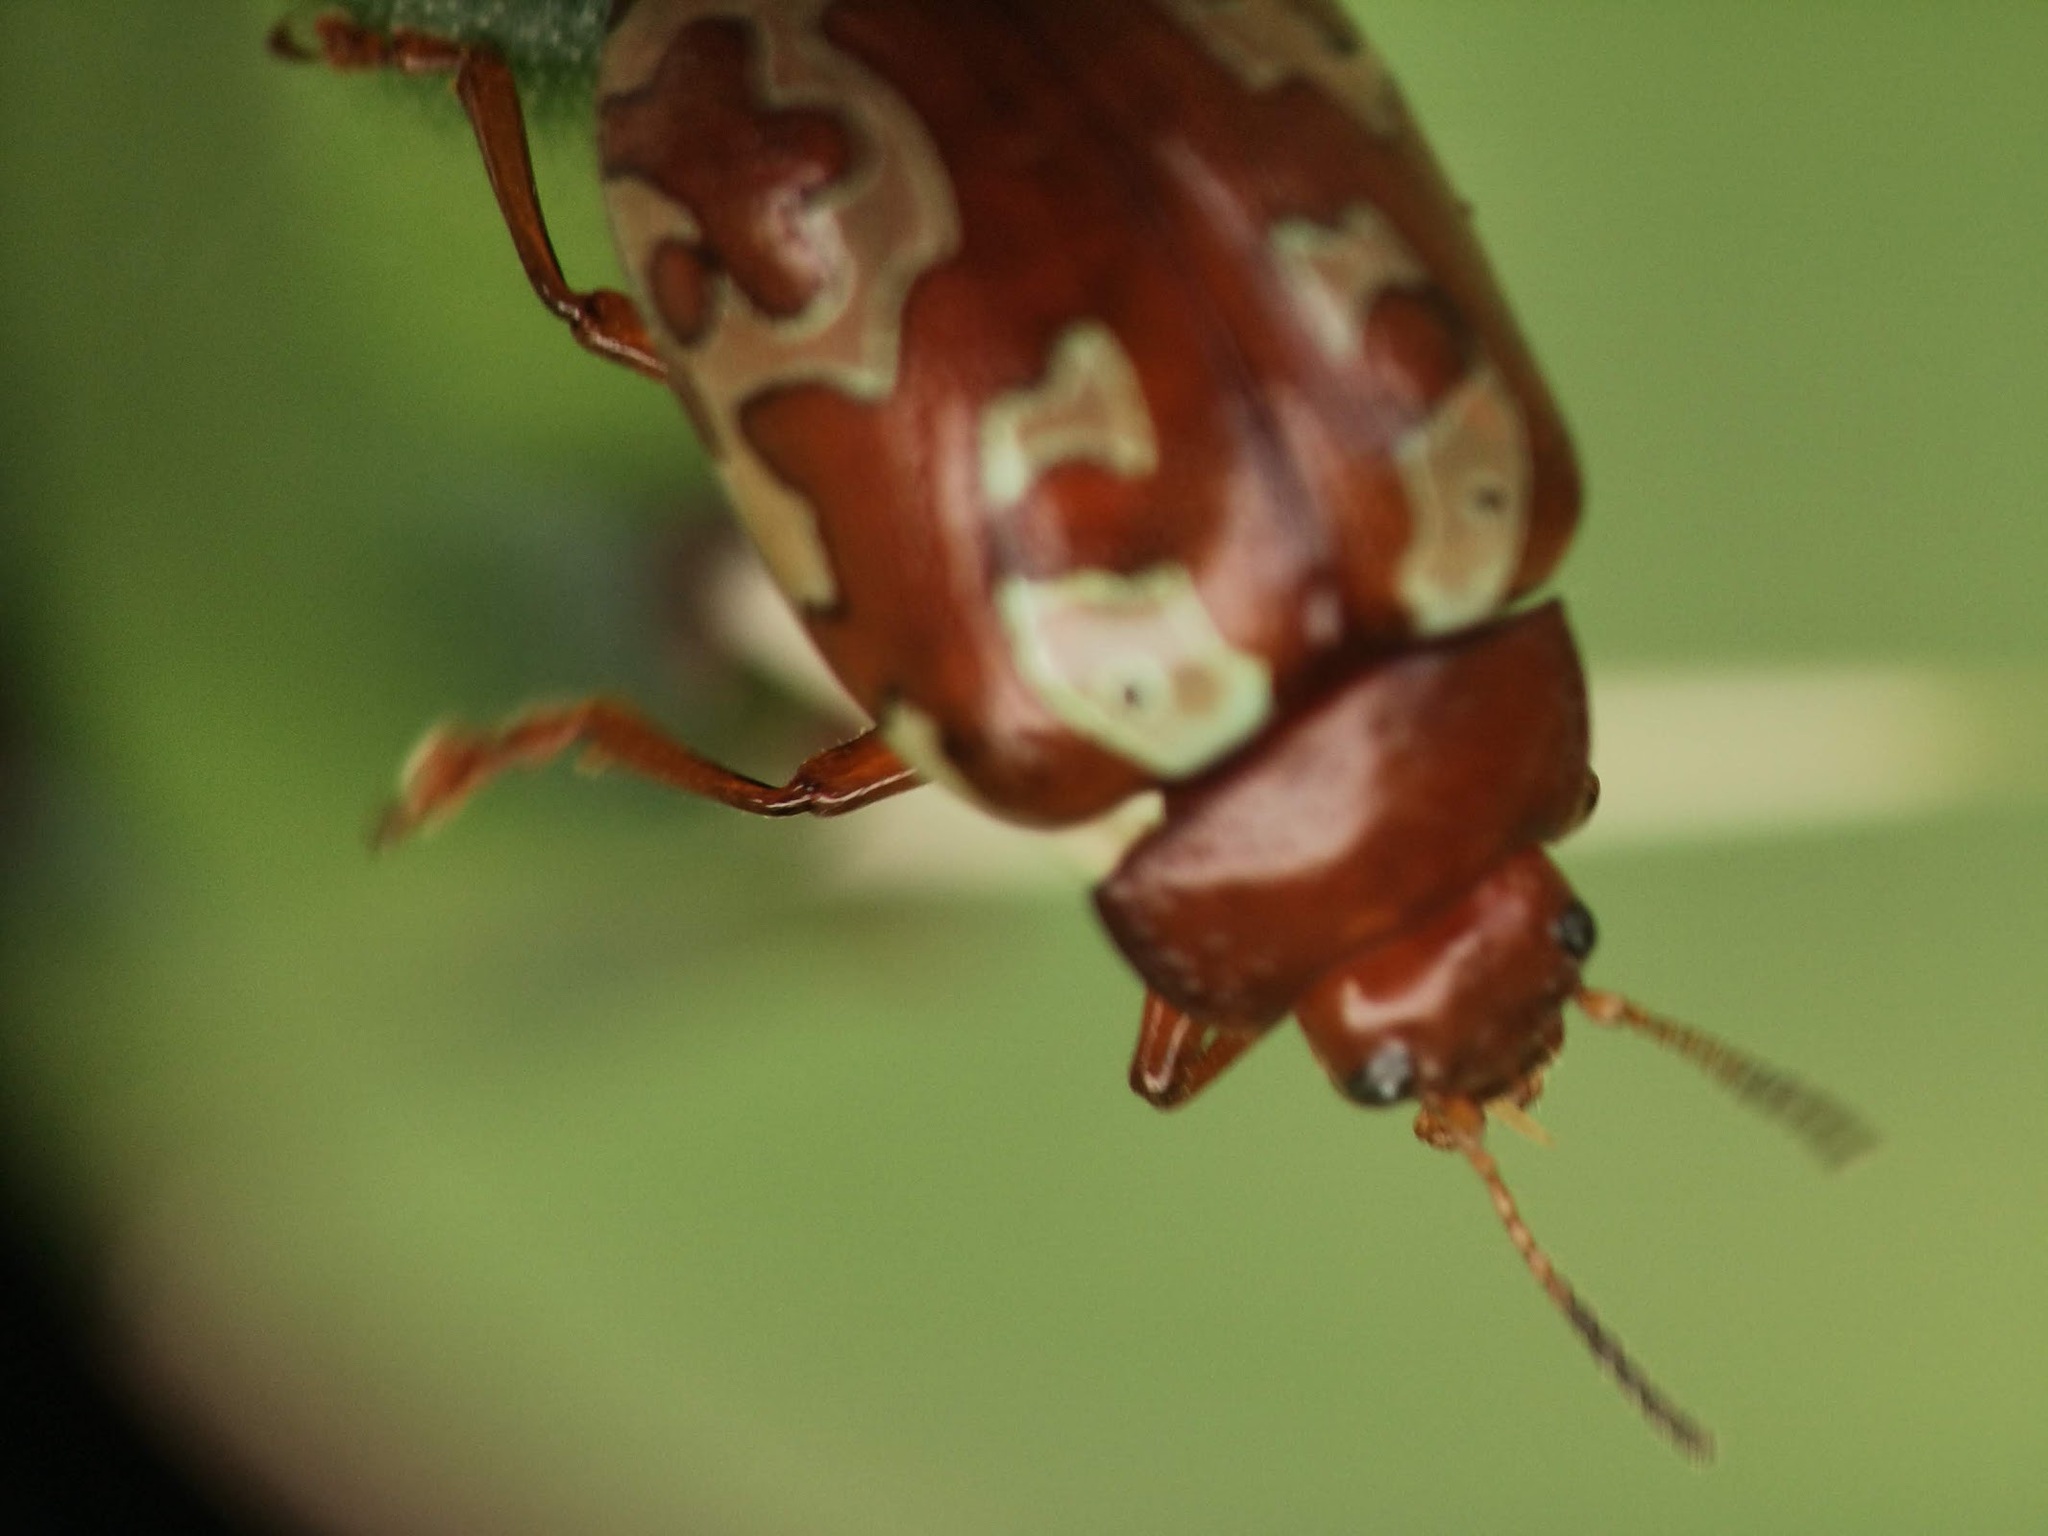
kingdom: Animalia
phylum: Arthropoda
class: Insecta
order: Coleoptera
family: Chrysomelidae
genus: Calligrapha
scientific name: Calligrapha aladina
